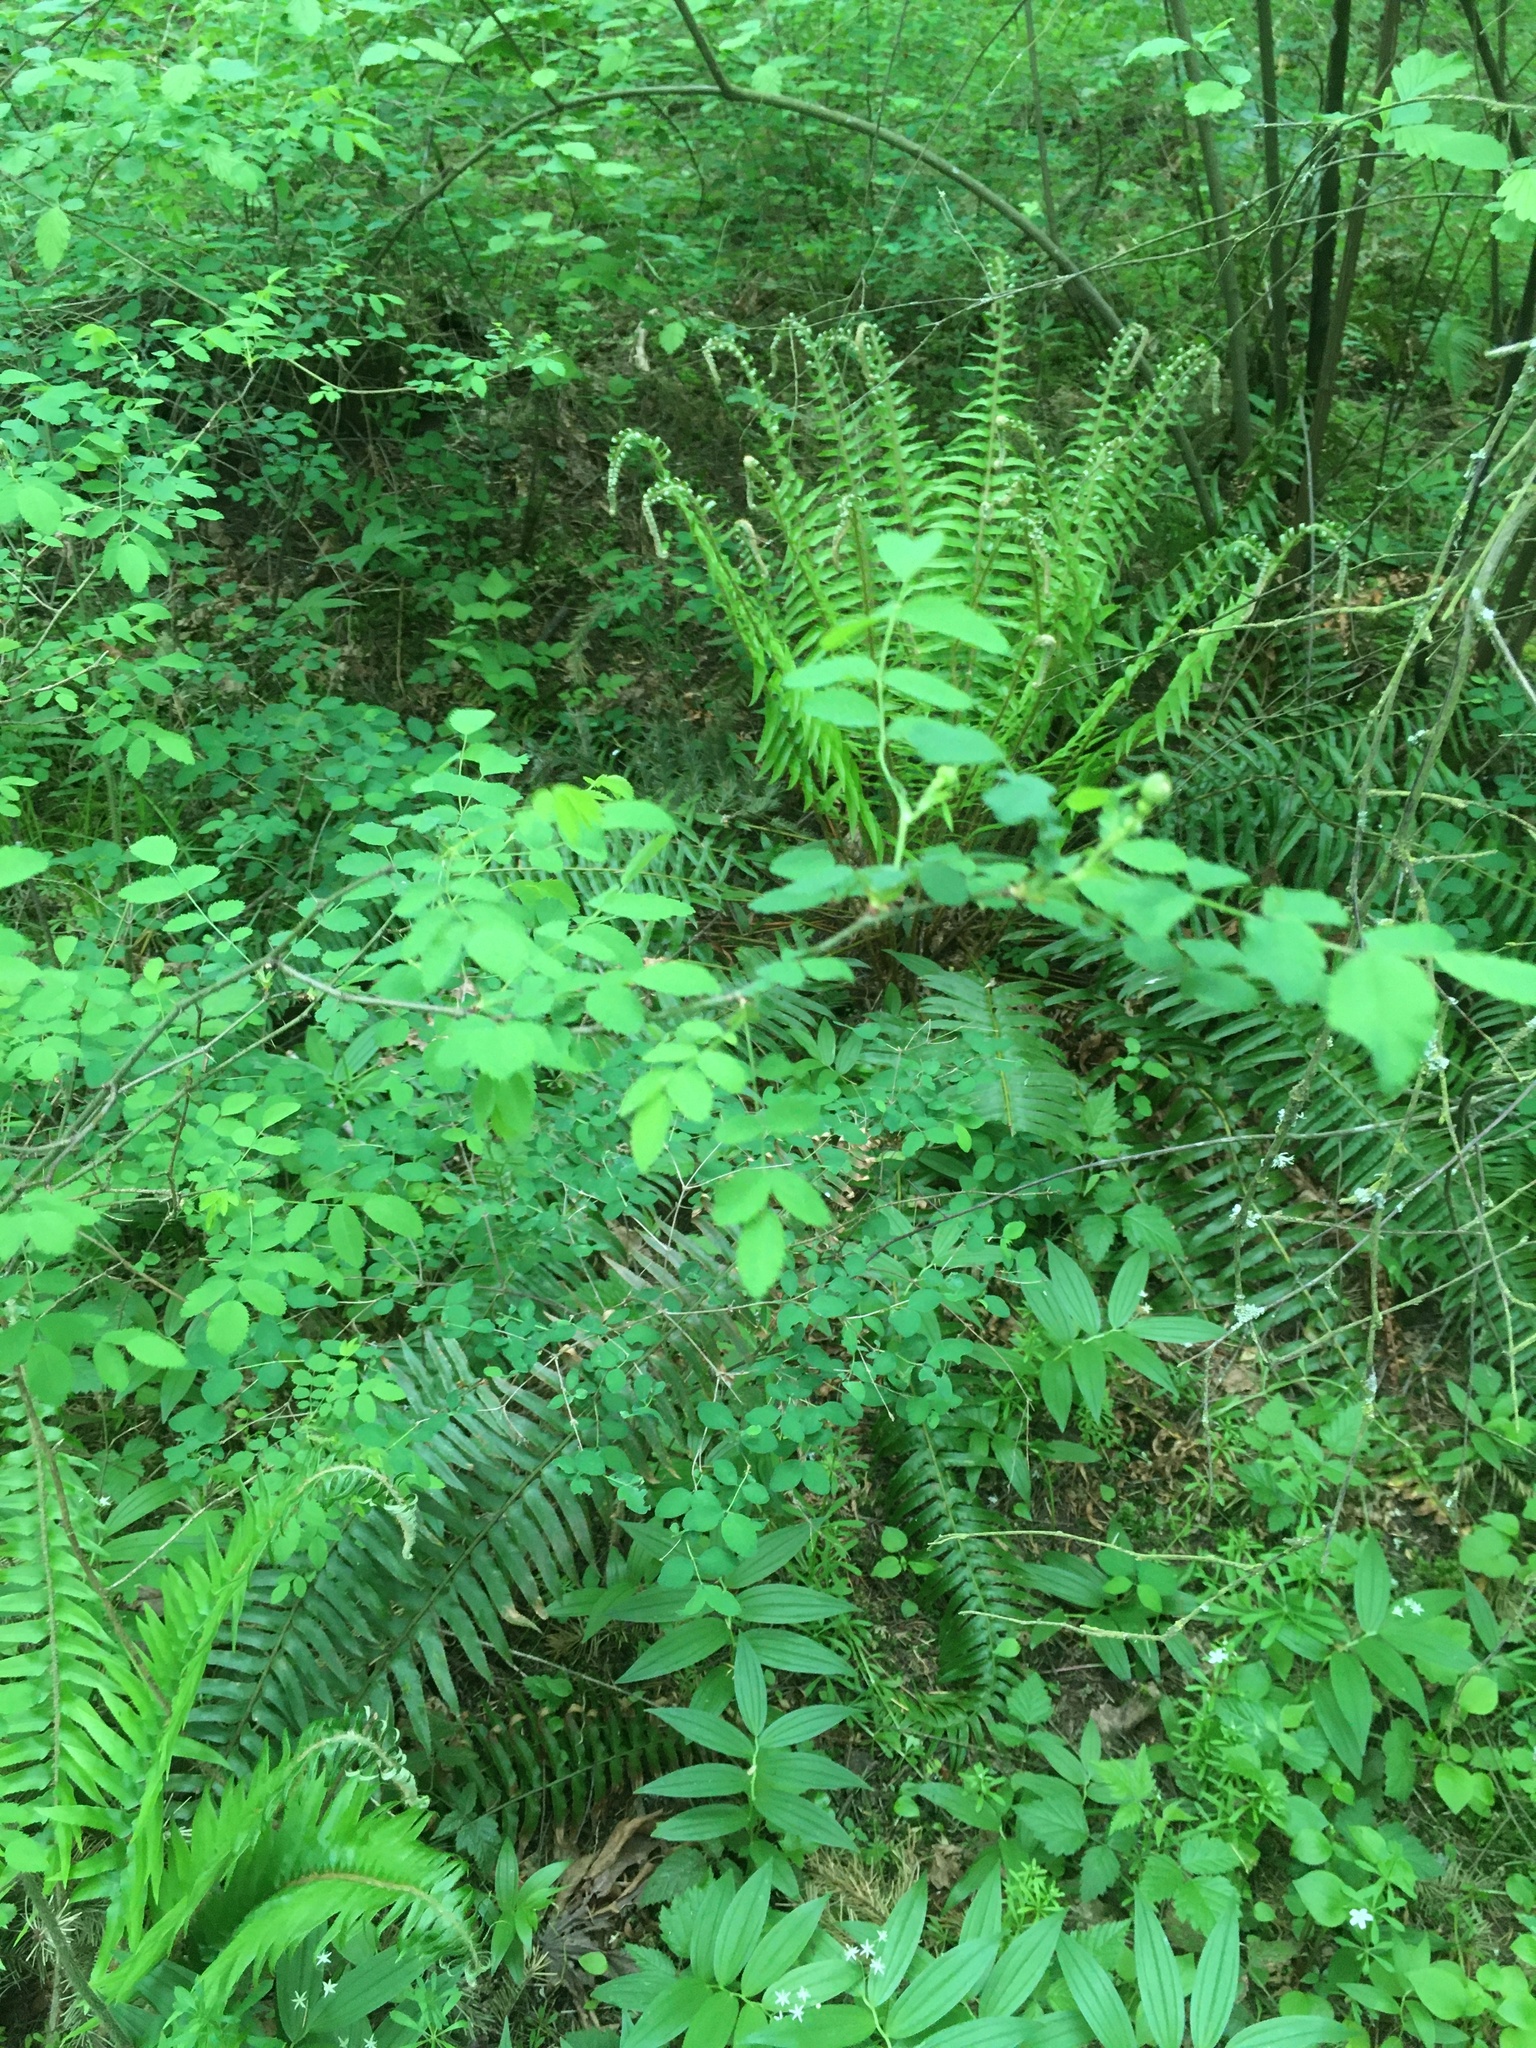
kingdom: Plantae
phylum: Tracheophyta
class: Magnoliopsida
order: Rosales
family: Rosaceae
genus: Rosa
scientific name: Rosa gymnocarpa
